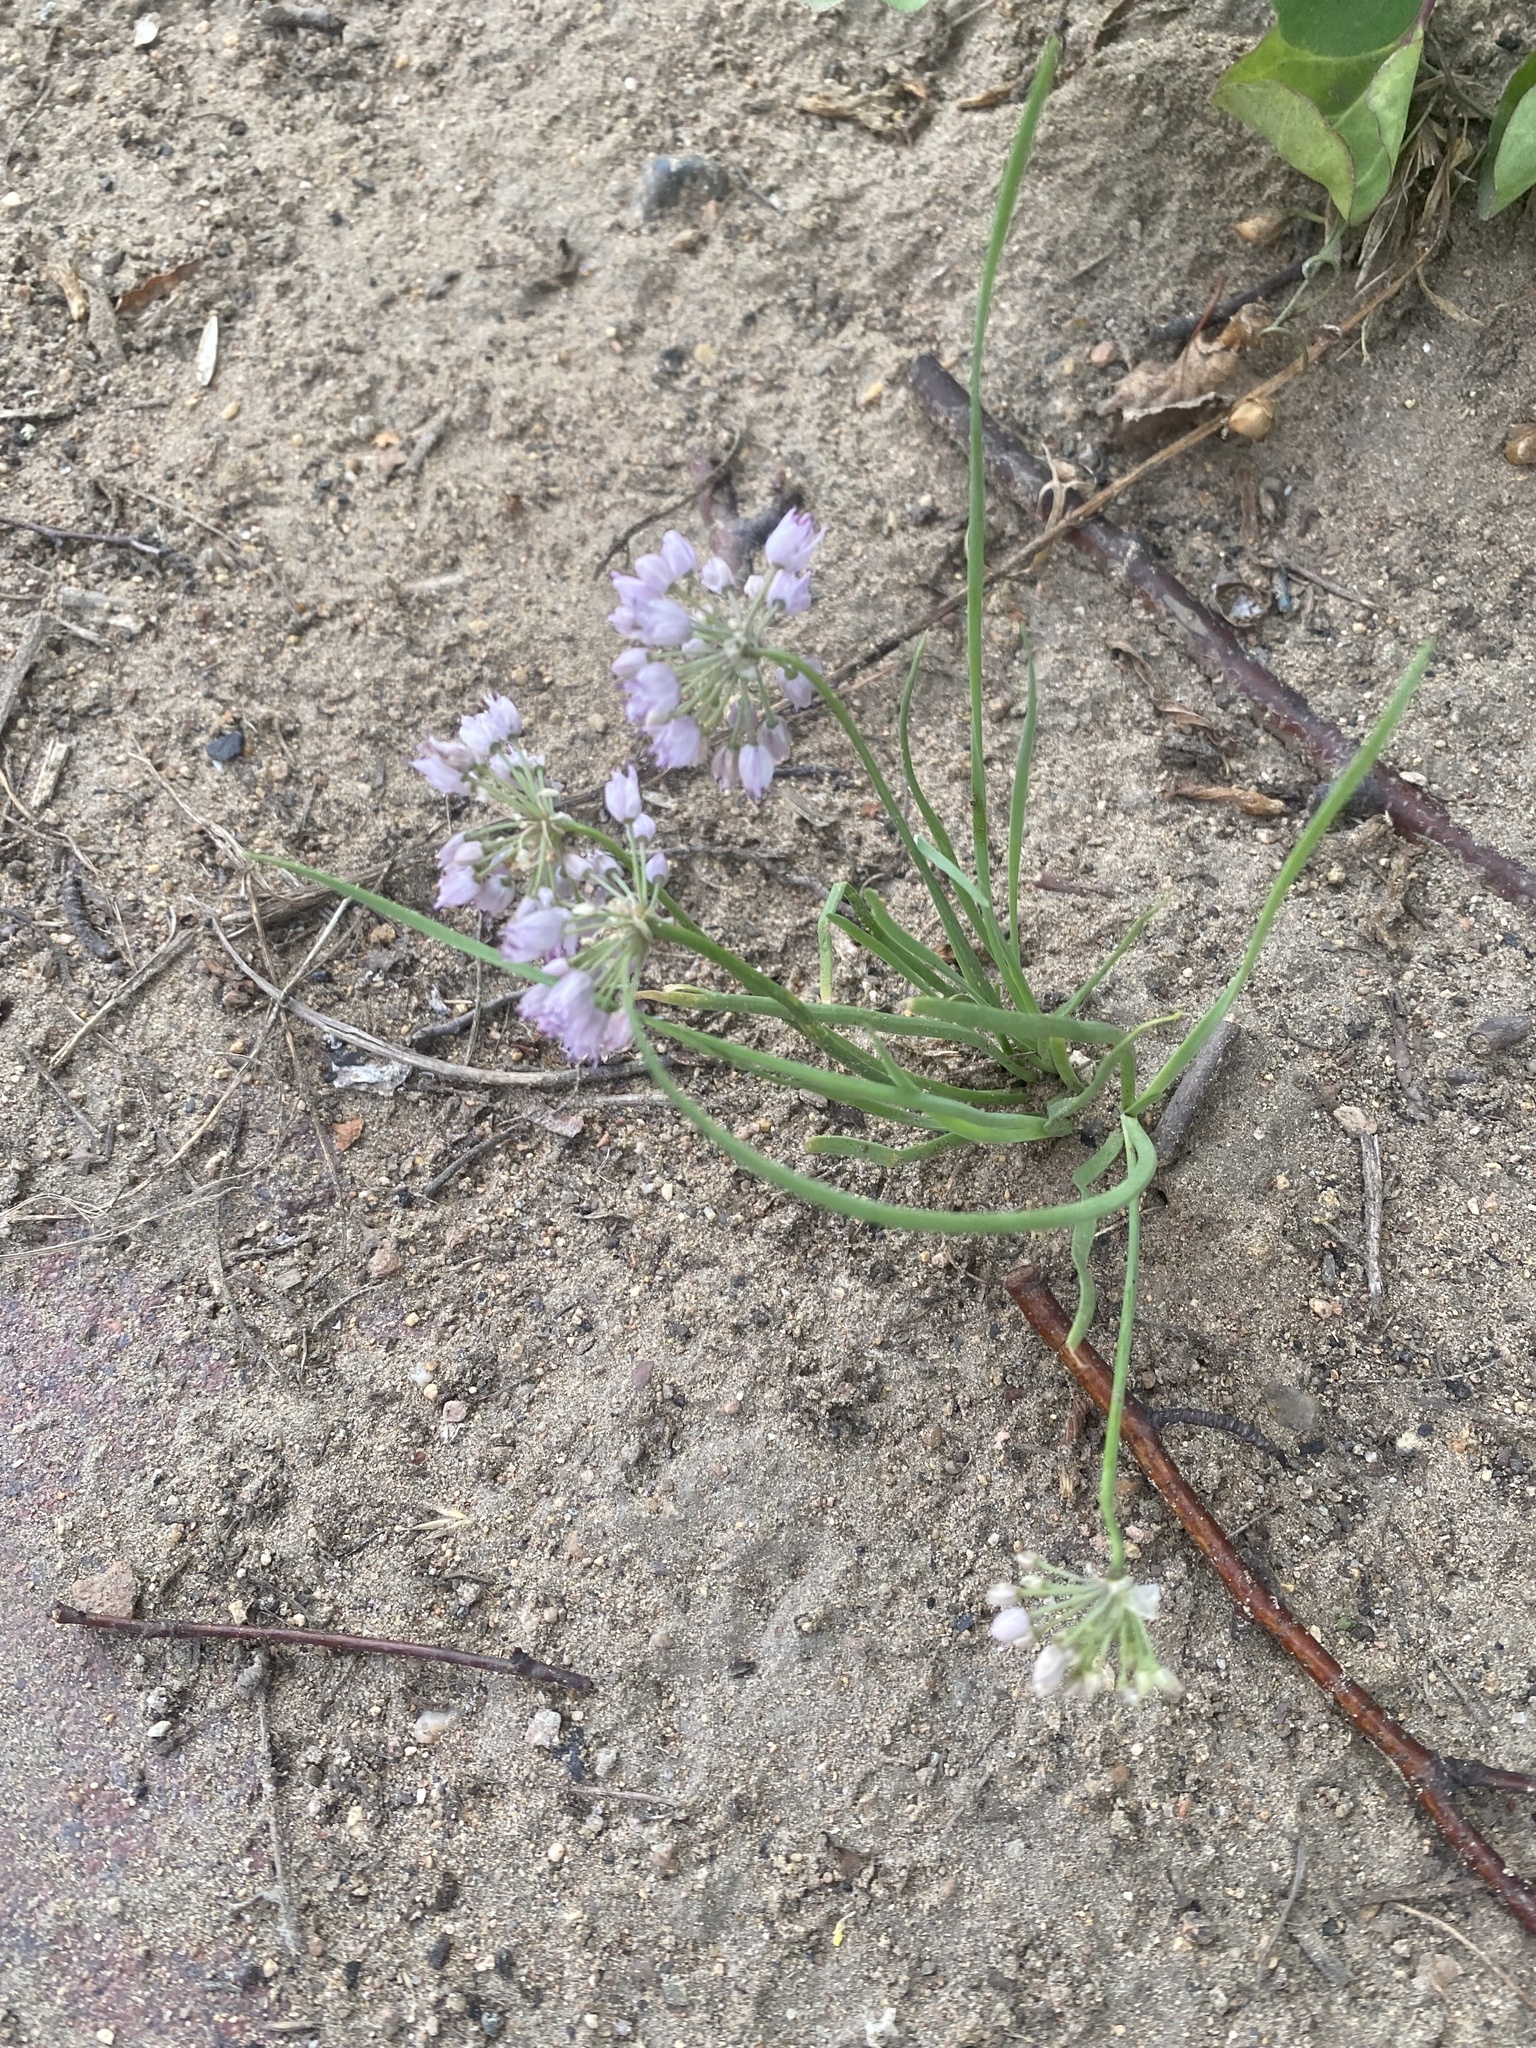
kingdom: Plantae
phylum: Tracheophyta
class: Liliopsida
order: Asparagales
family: Amaryllidaceae
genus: Allium
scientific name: Allium
